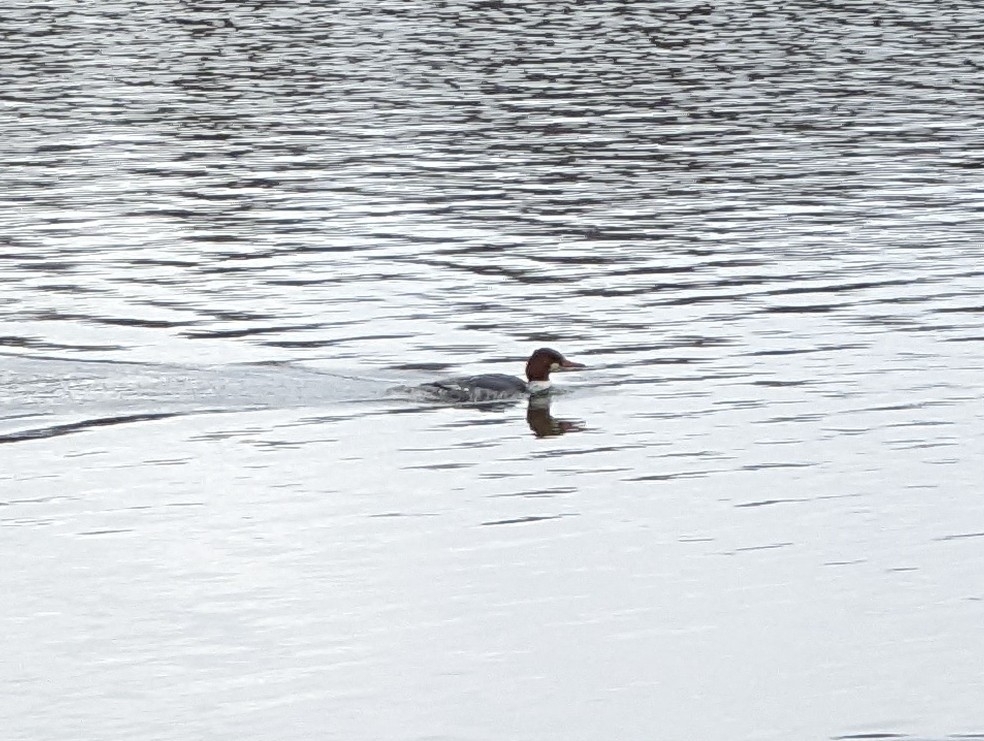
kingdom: Animalia
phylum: Chordata
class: Aves
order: Anseriformes
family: Anatidae
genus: Mergus
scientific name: Mergus merganser
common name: Common merganser
